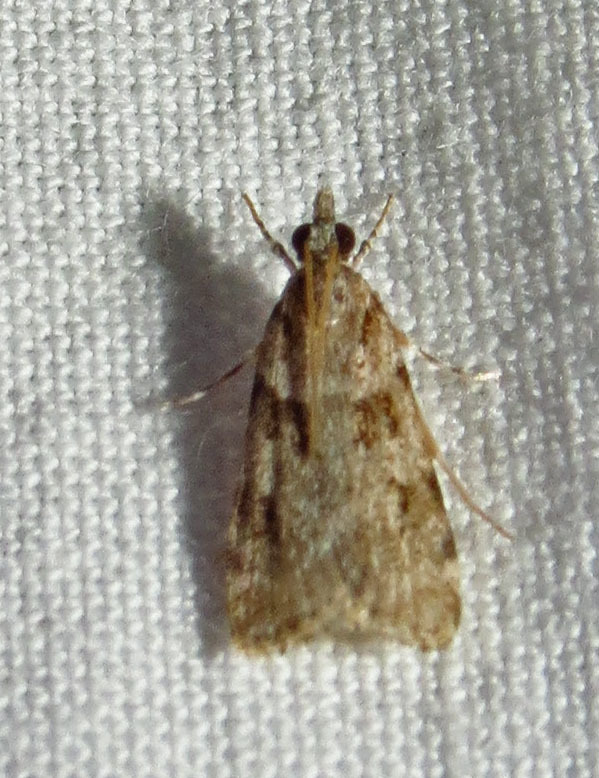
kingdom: Animalia
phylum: Arthropoda
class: Insecta
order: Lepidoptera
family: Crambidae
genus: Scoparia
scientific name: Scoparia biplagialis
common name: Double-striped scoparia moth
